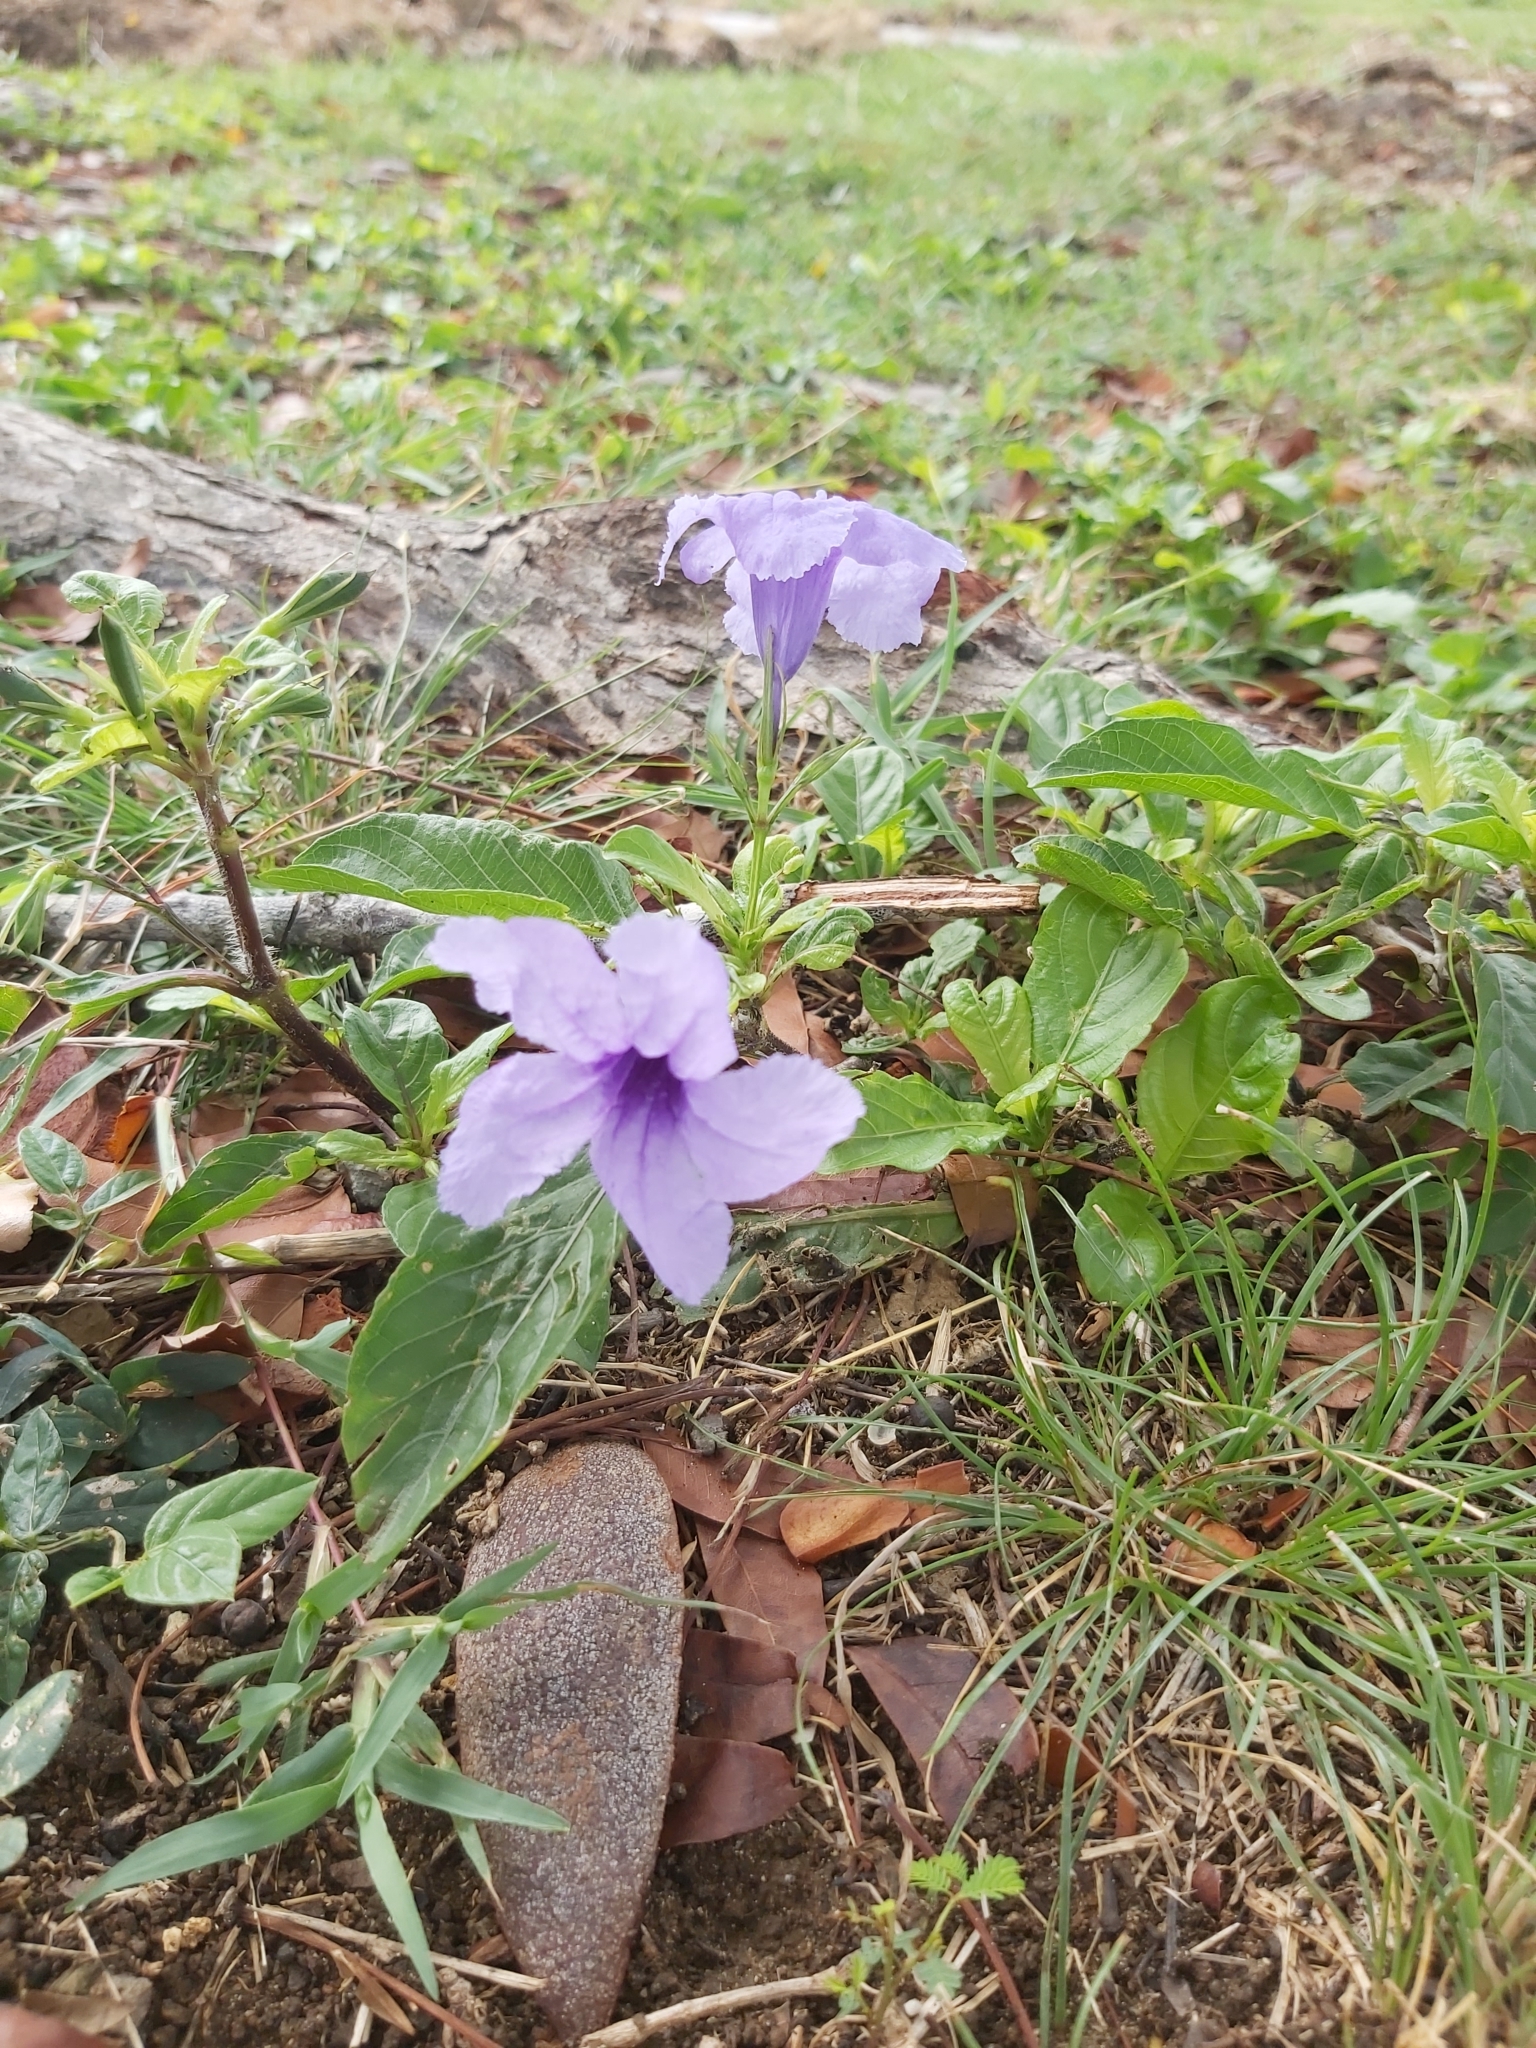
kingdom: Plantae
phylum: Tracheophyta
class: Magnoliopsida
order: Lamiales
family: Acanthaceae
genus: Ruellia
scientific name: Ruellia tuberosa
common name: Devil's bit
